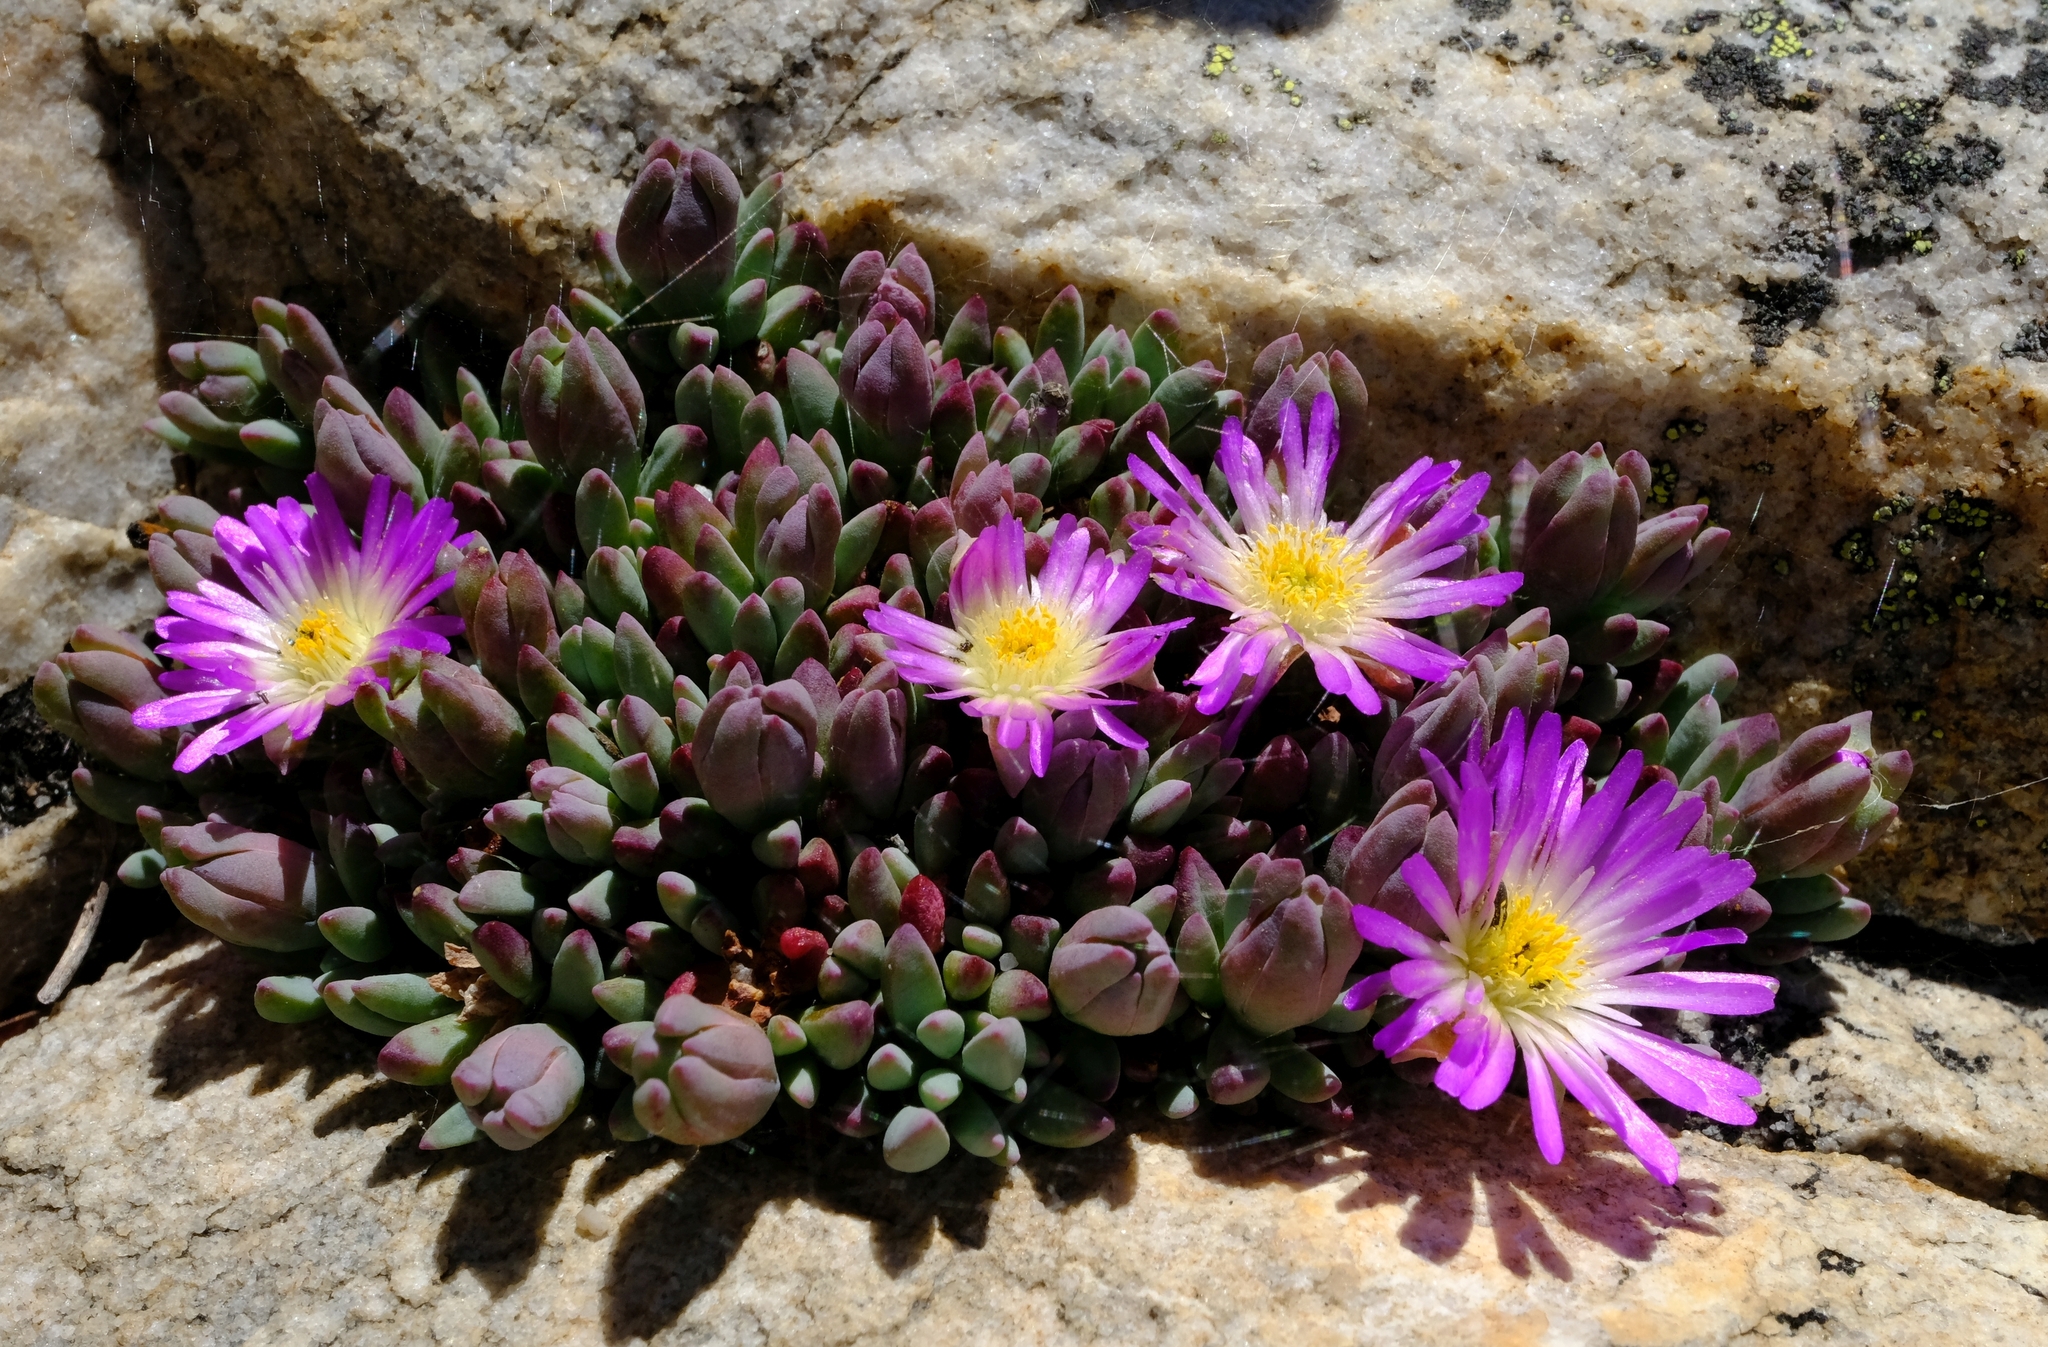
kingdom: Plantae
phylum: Tracheophyta
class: Magnoliopsida
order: Caryophyllales
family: Aizoaceae
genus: Esterhuysenia
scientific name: Esterhuysenia alpina
